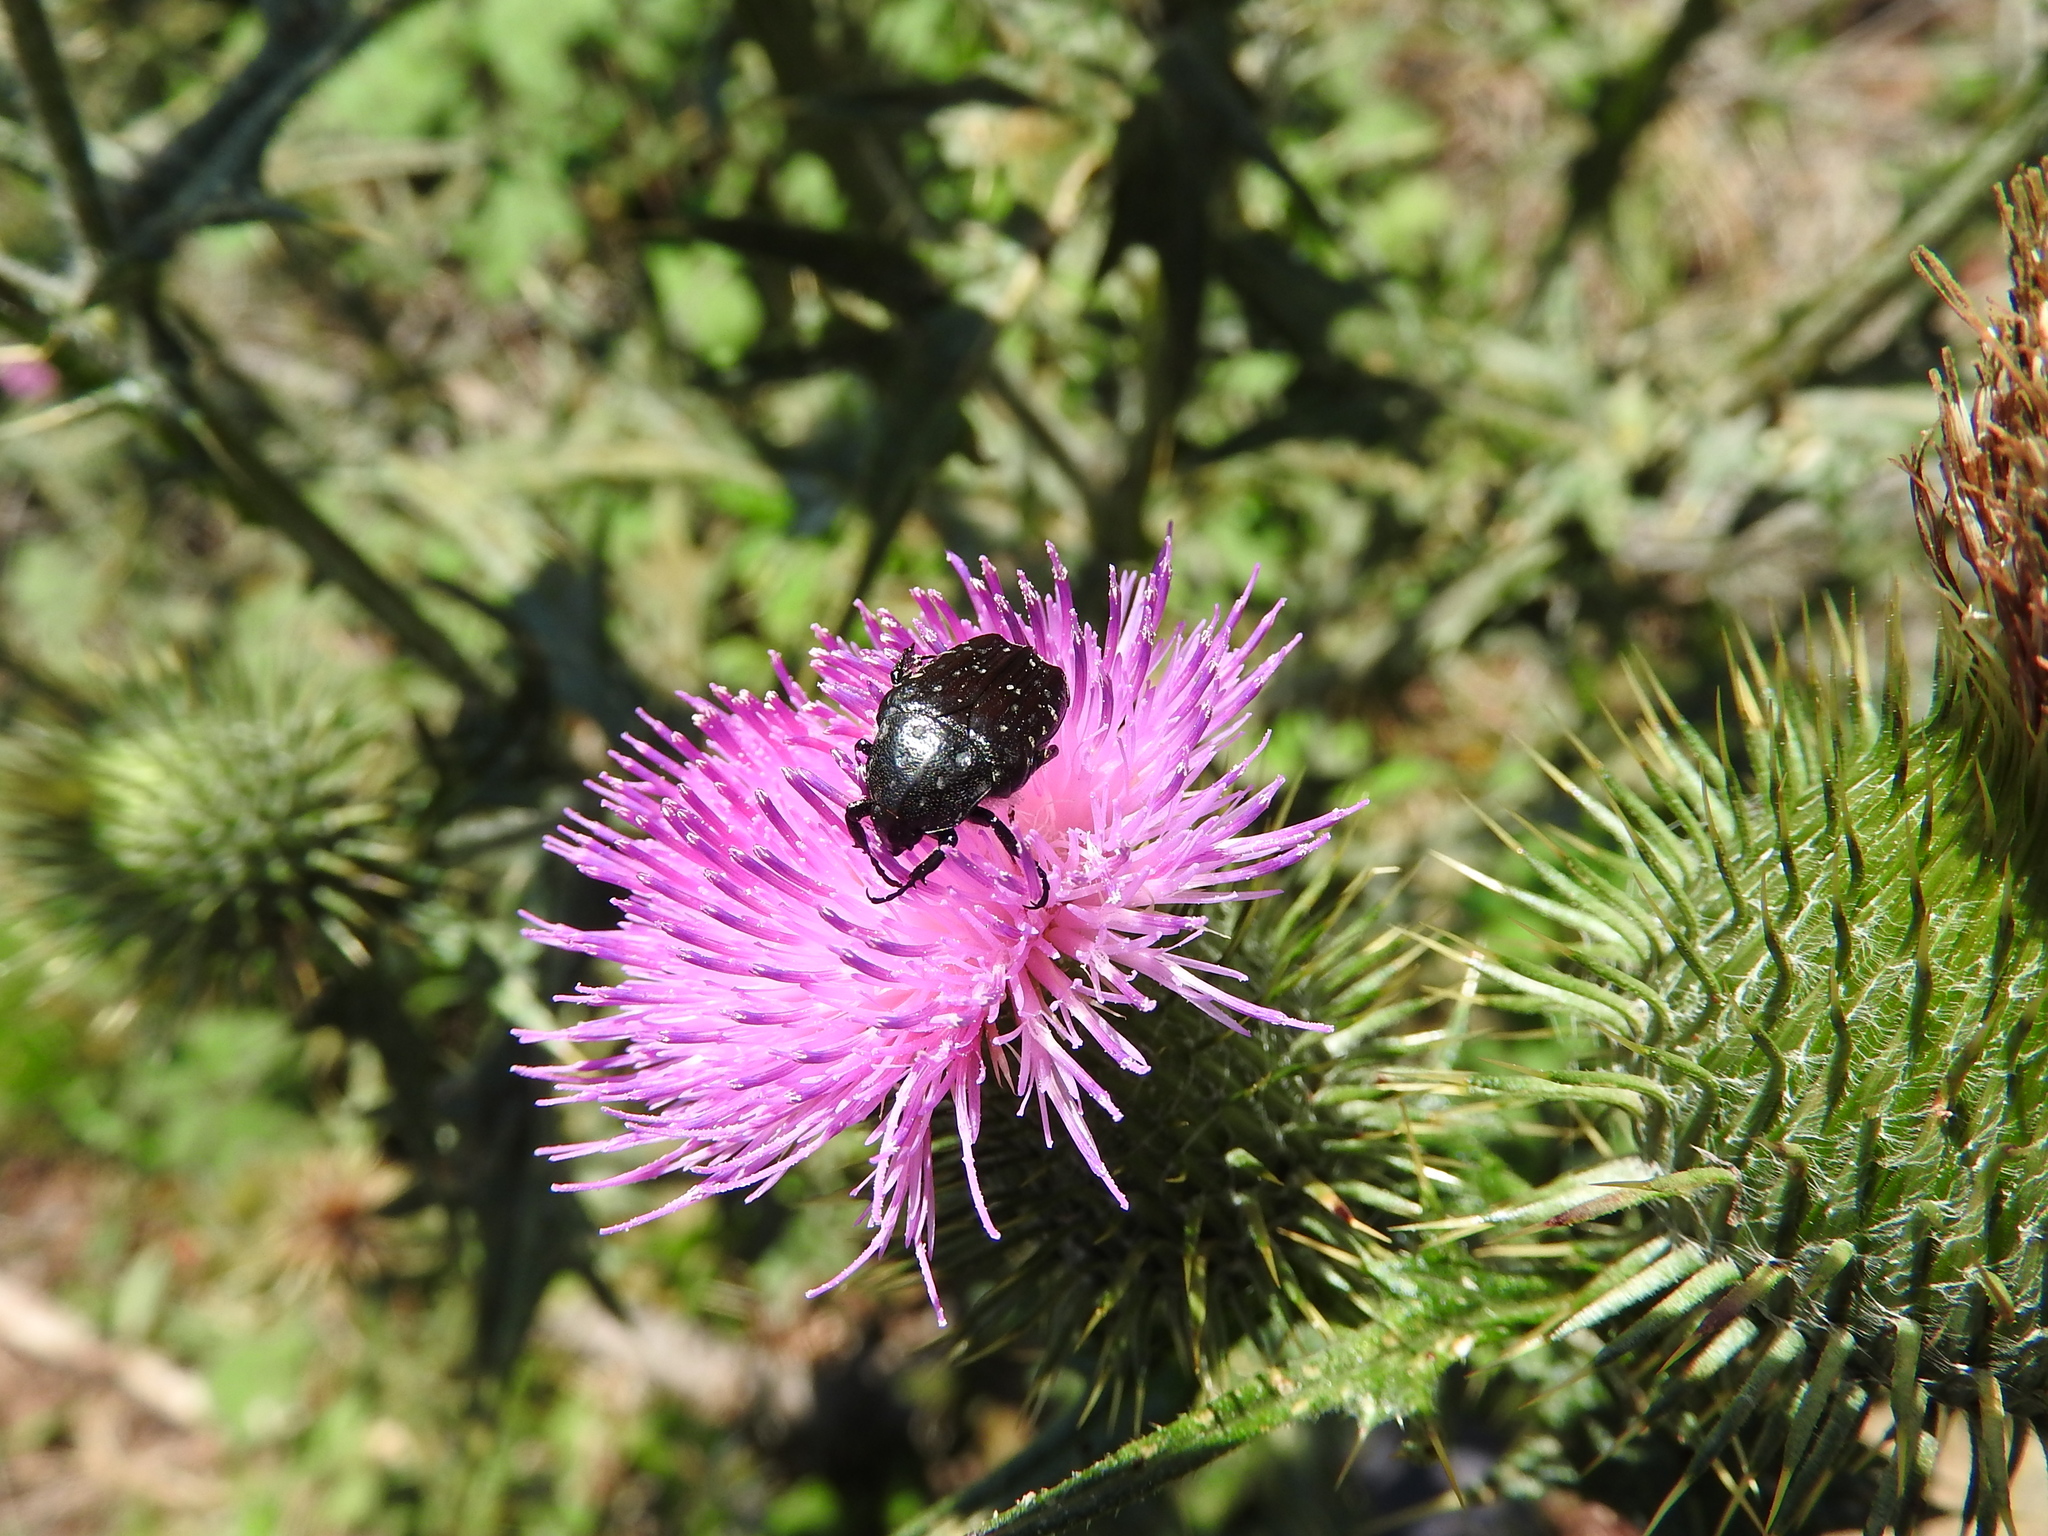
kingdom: Animalia
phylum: Arthropoda
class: Insecta
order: Coleoptera
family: Scarabaeidae
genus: Oxythyrea
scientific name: Oxythyrea funesta
